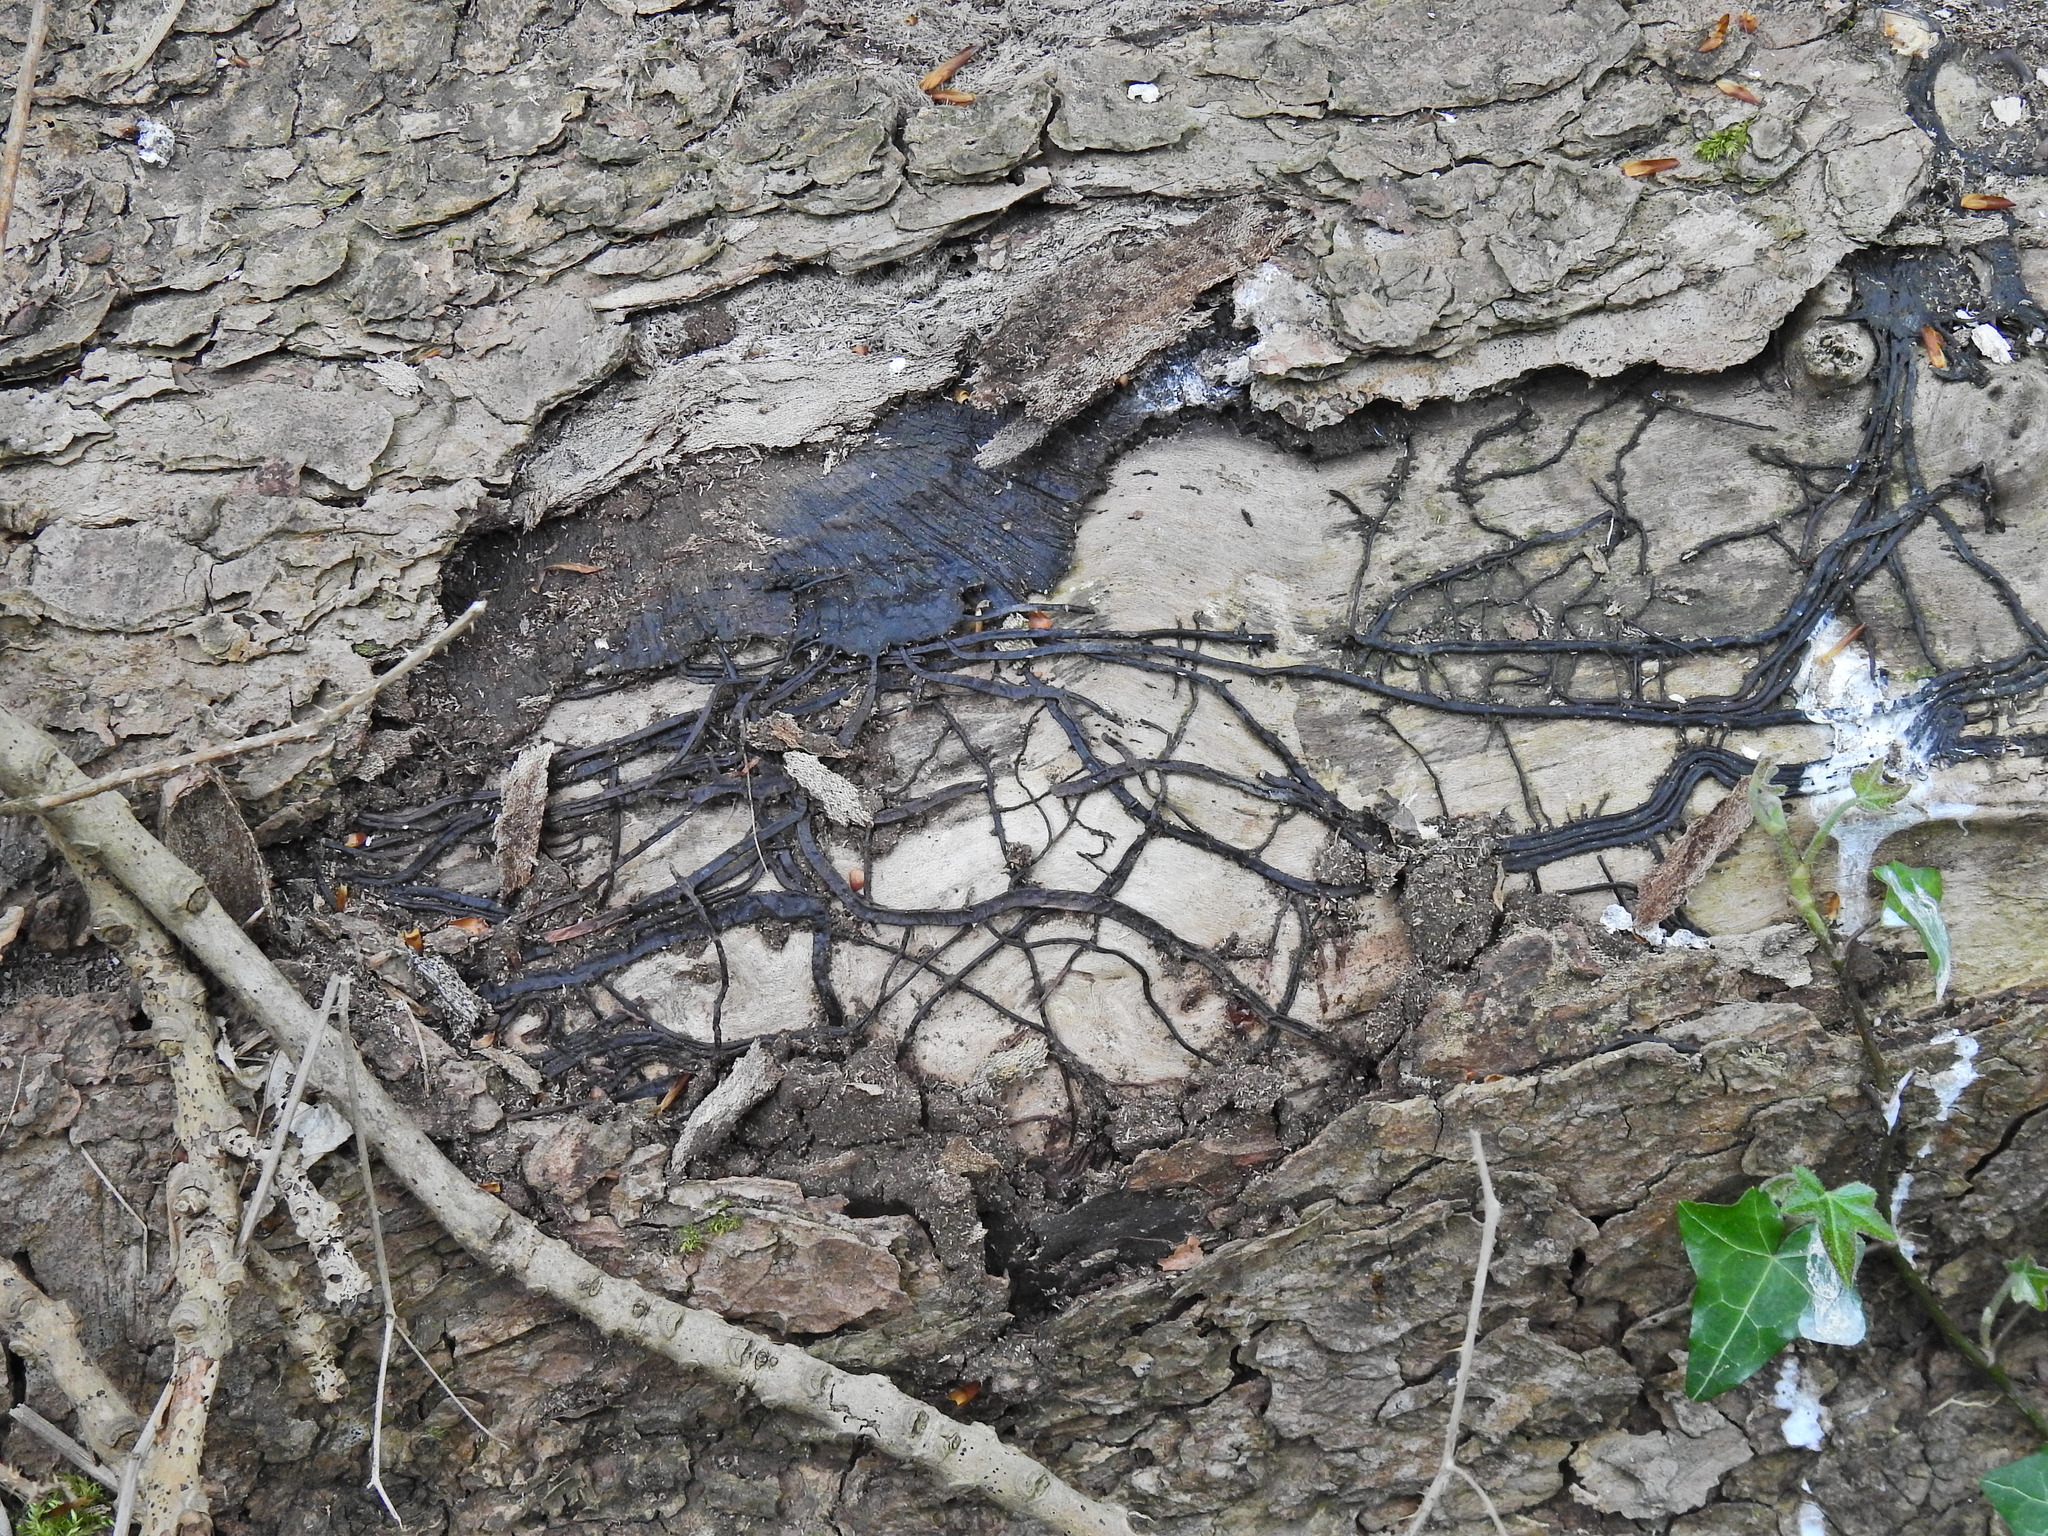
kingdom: Fungi
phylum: Basidiomycota
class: Agaricomycetes
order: Agaricales
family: Physalacriaceae
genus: Armillaria
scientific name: Armillaria mellea
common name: Honey fungus
